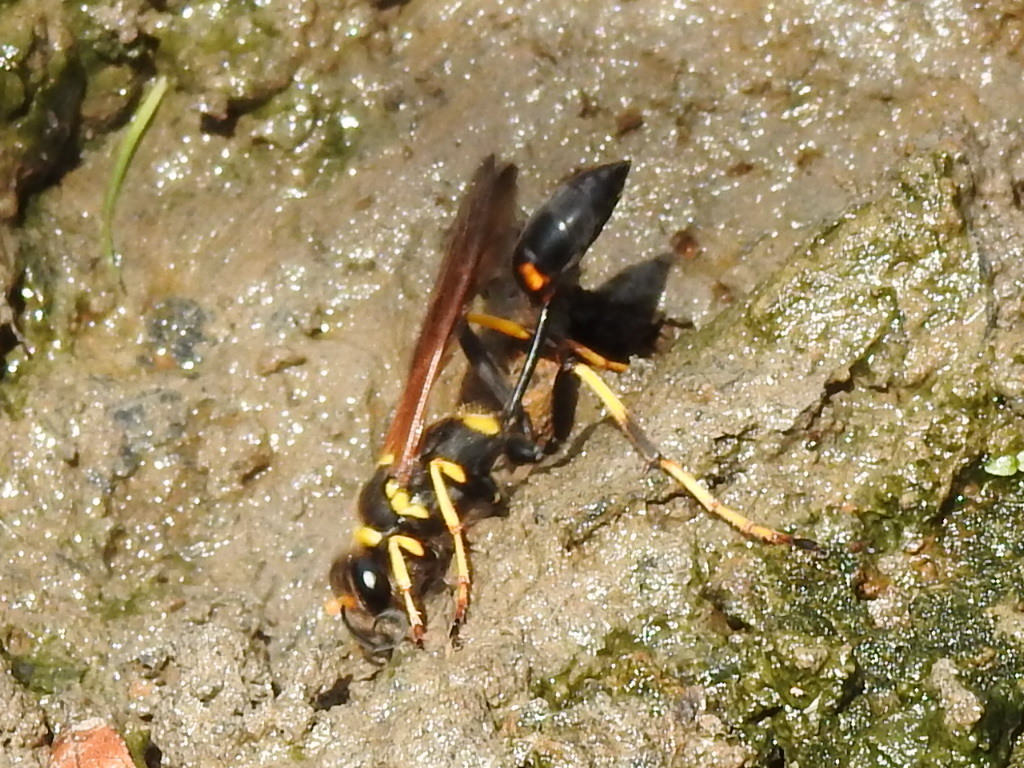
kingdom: Animalia
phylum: Arthropoda
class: Insecta
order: Hymenoptera
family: Sphecidae
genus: Sceliphron
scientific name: Sceliphron caementarium
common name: Mud dauber
